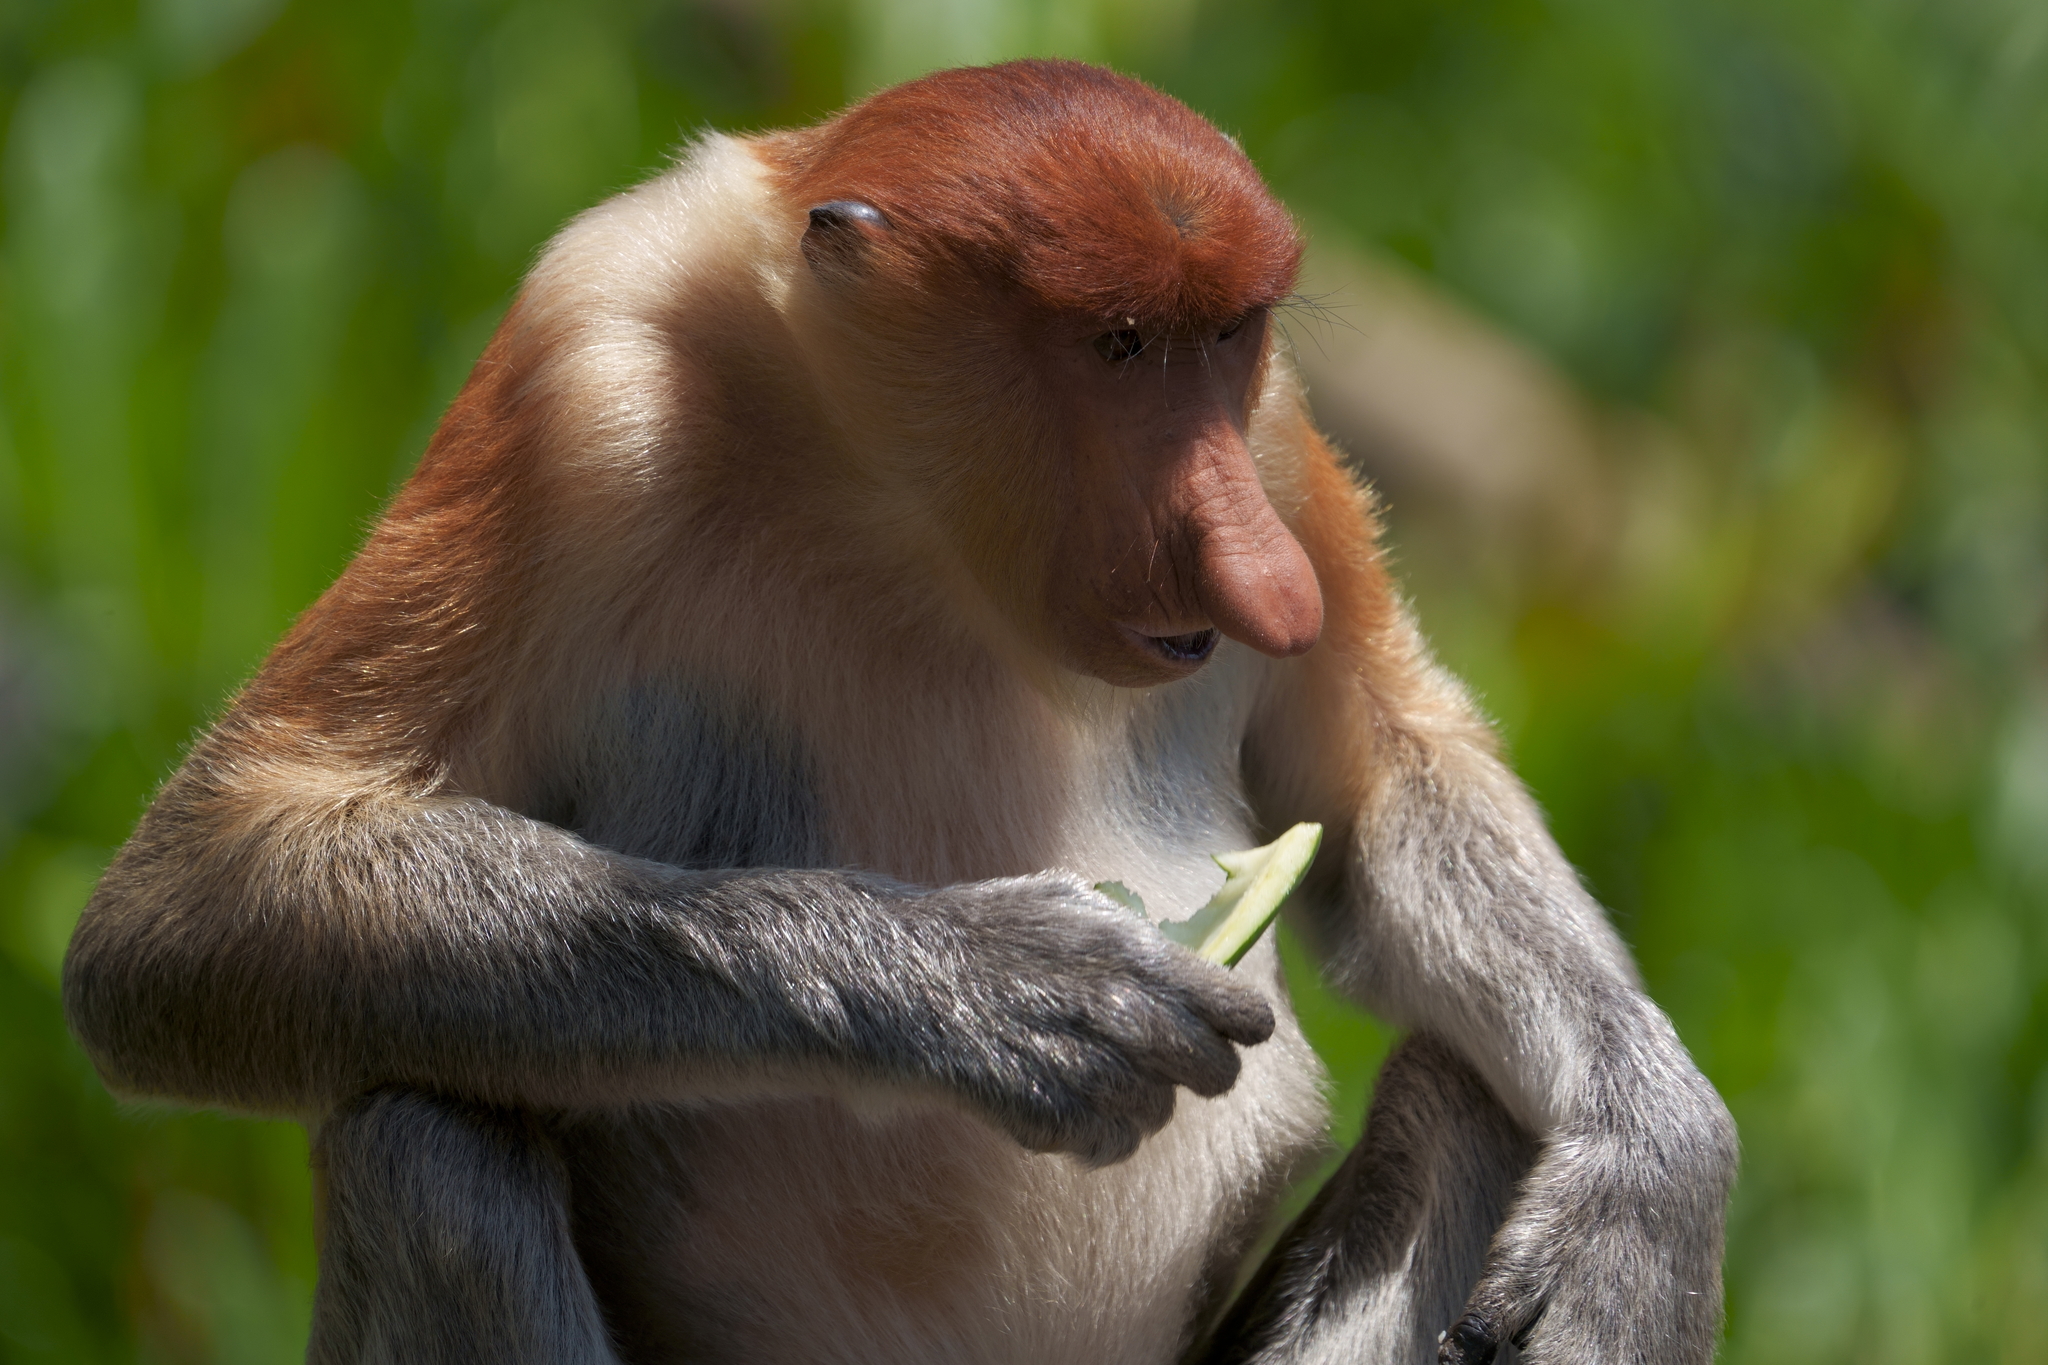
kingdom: Animalia
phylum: Chordata
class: Mammalia
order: Primates
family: Cercopithecidae
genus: Nasalis
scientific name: Nasalis larvatus
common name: Proboscis monkey
